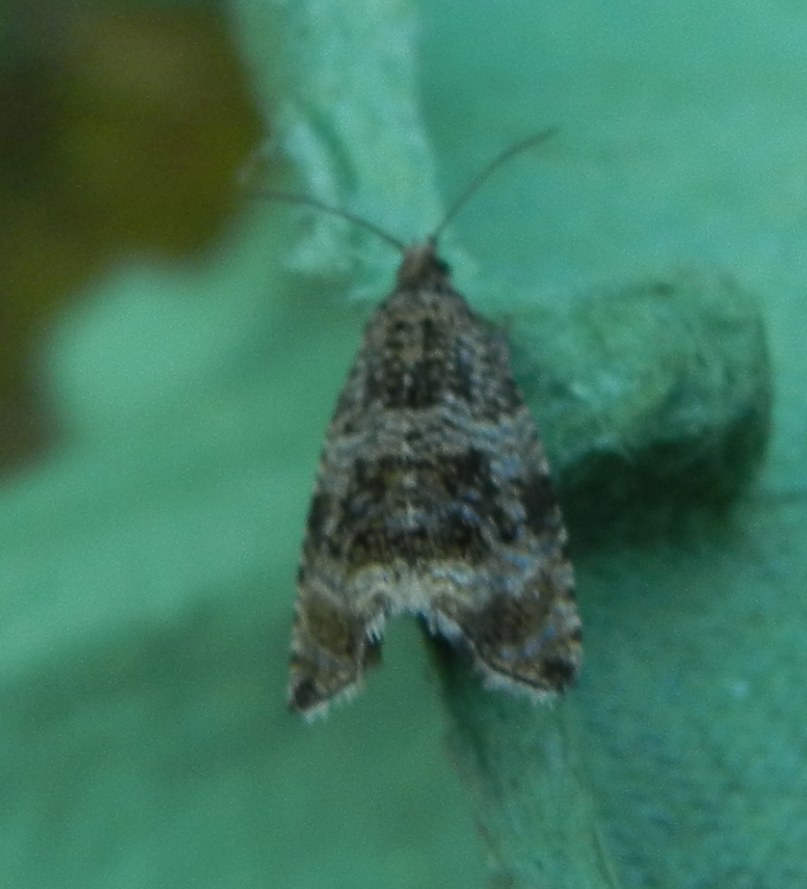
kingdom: Animalia
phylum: Arthropoda
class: Insecta
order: Lepidoptera
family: Tortricidae
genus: Syricoris
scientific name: Syricoris lacunana
